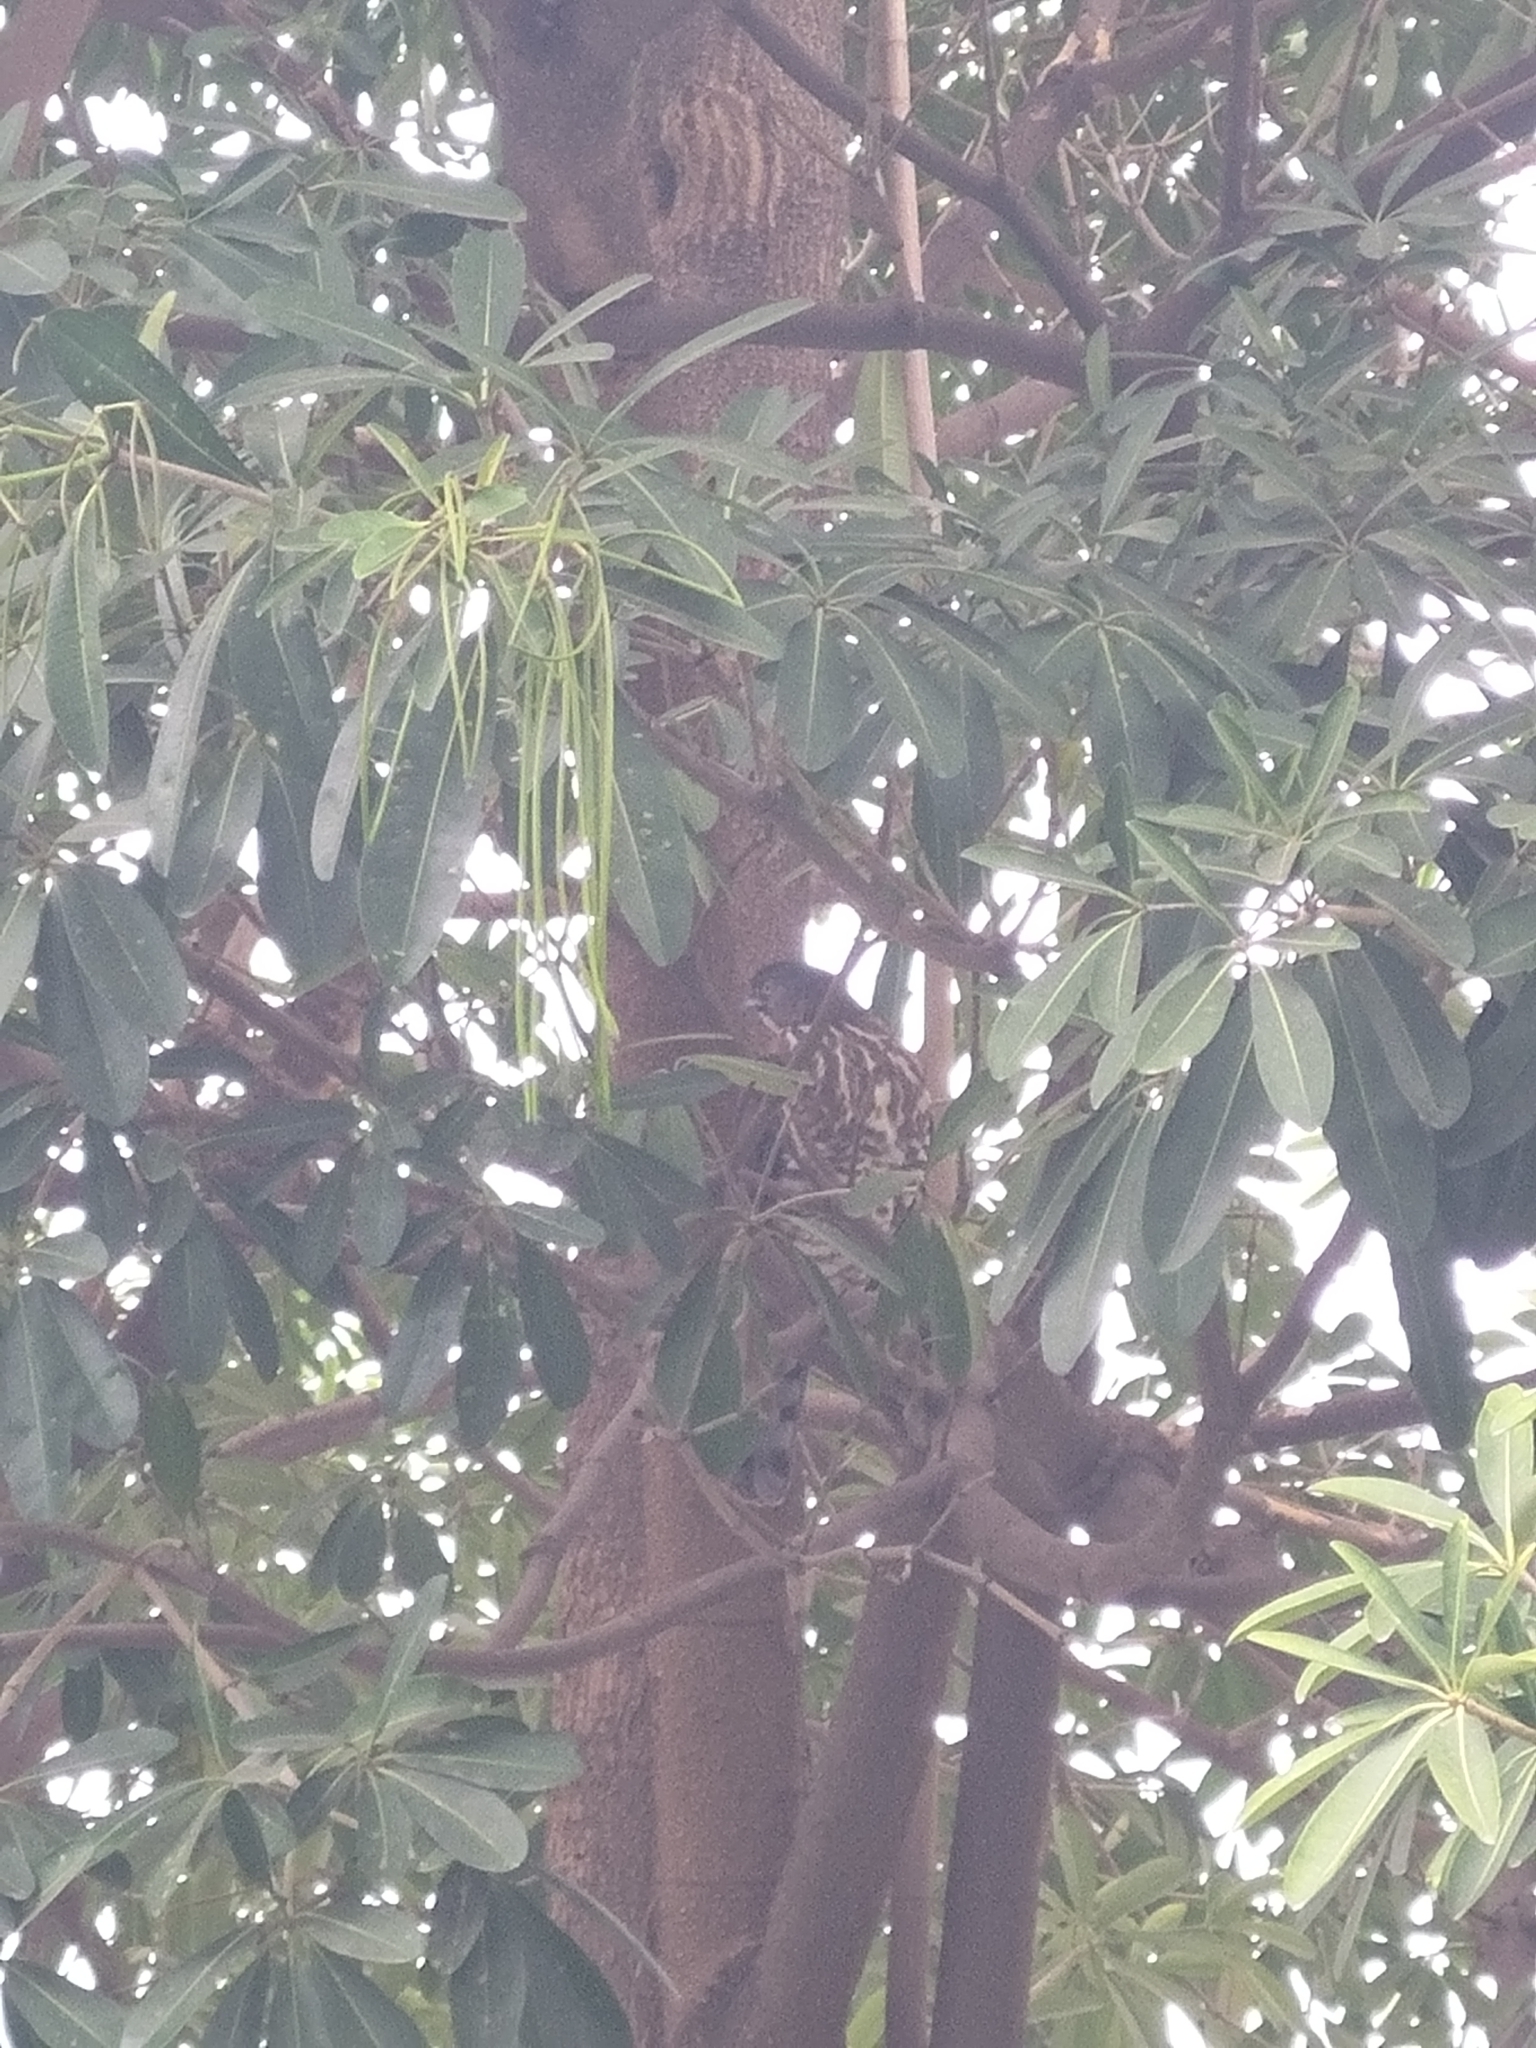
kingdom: Animalia
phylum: Chordata
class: Aves
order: Accipitriformes
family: Accipitridae
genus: Accipiter
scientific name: Accipiter trivirgatus
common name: Crested goshawk
